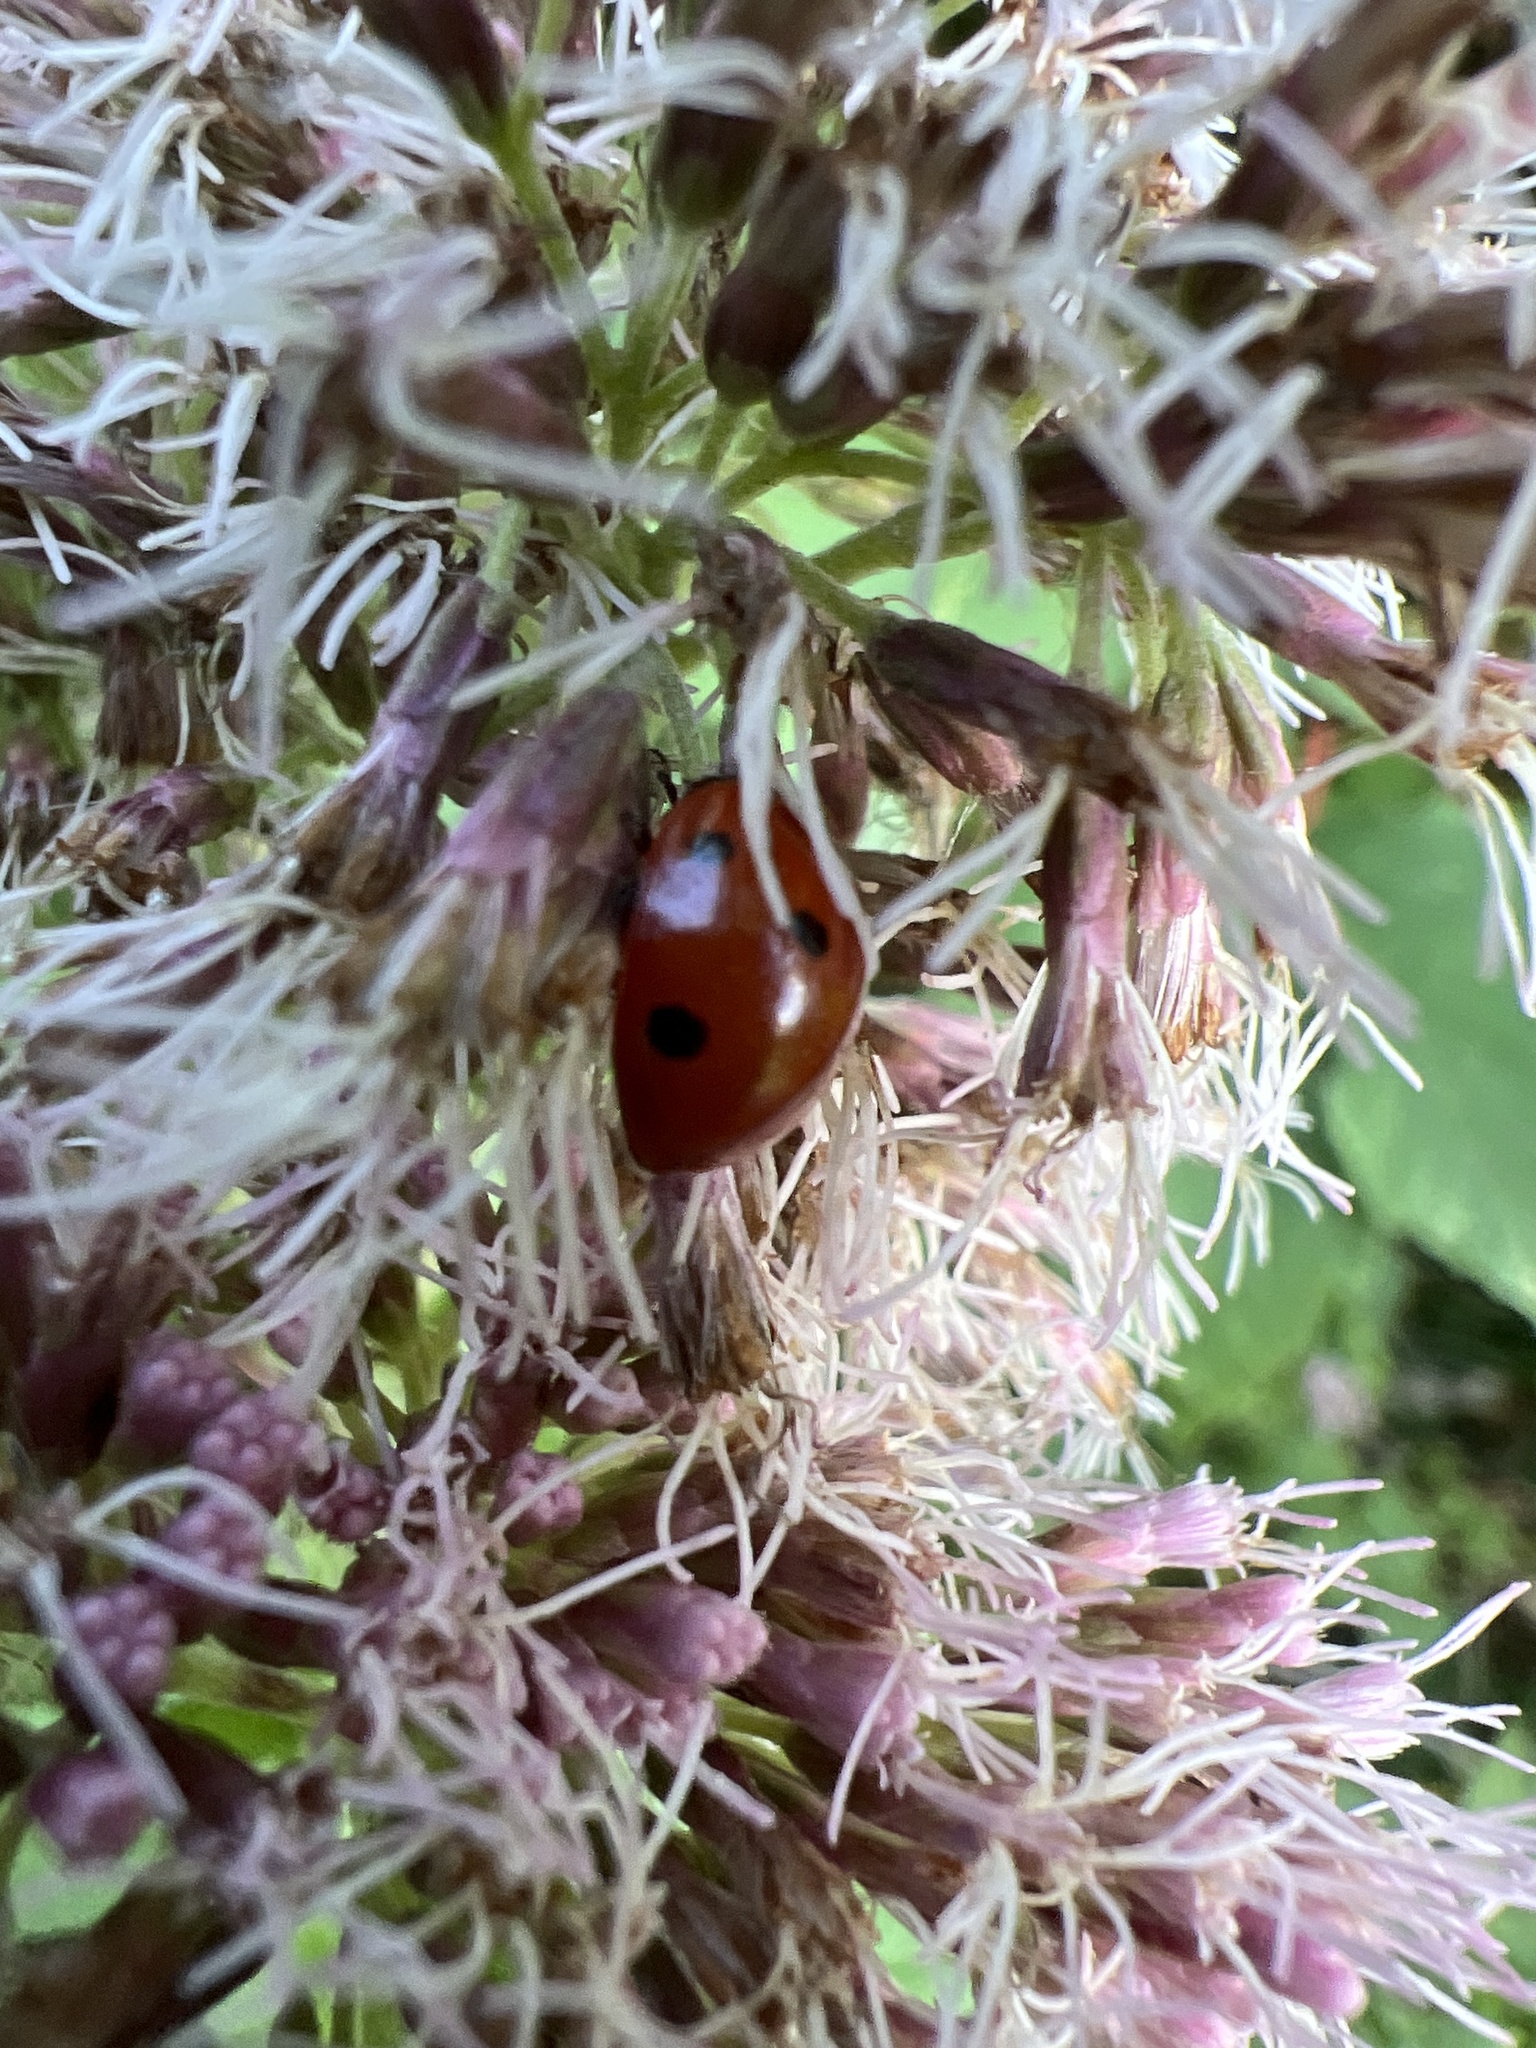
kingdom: Animalia
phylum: Arthropoda
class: Insecta
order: Coleoptera
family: Coccinellidae
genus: Coccinella
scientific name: Coccinella septempunctata
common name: Sevenspotted lady beetle
